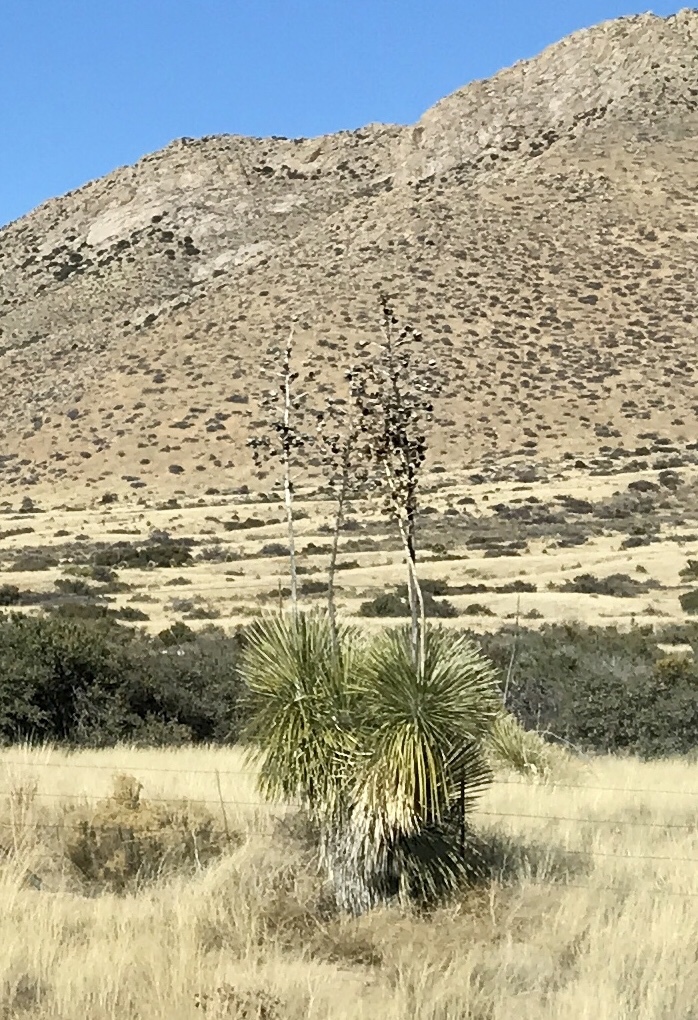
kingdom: Plantae
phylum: Tracheophyta
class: Liliopsida
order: Asparagales
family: Asparagaceae
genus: Yucca
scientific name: Yucca elata
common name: Palmella
